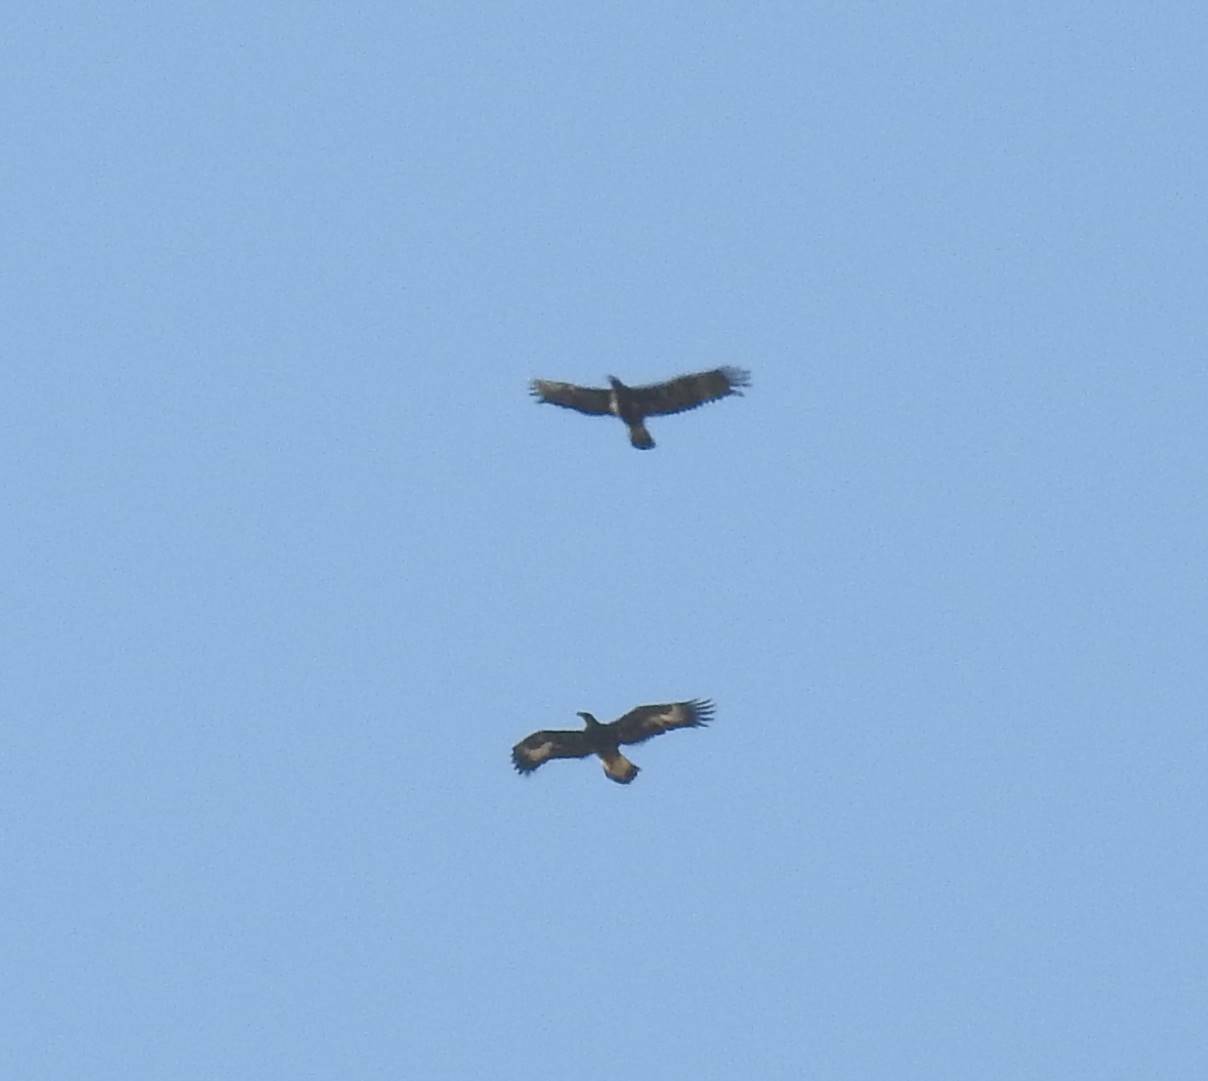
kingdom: Animalia
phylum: Chordata
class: Aves
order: Accipitriformes
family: Accipitridae
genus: Aquila
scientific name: Aquila chrysaetos
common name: Golden eagle
